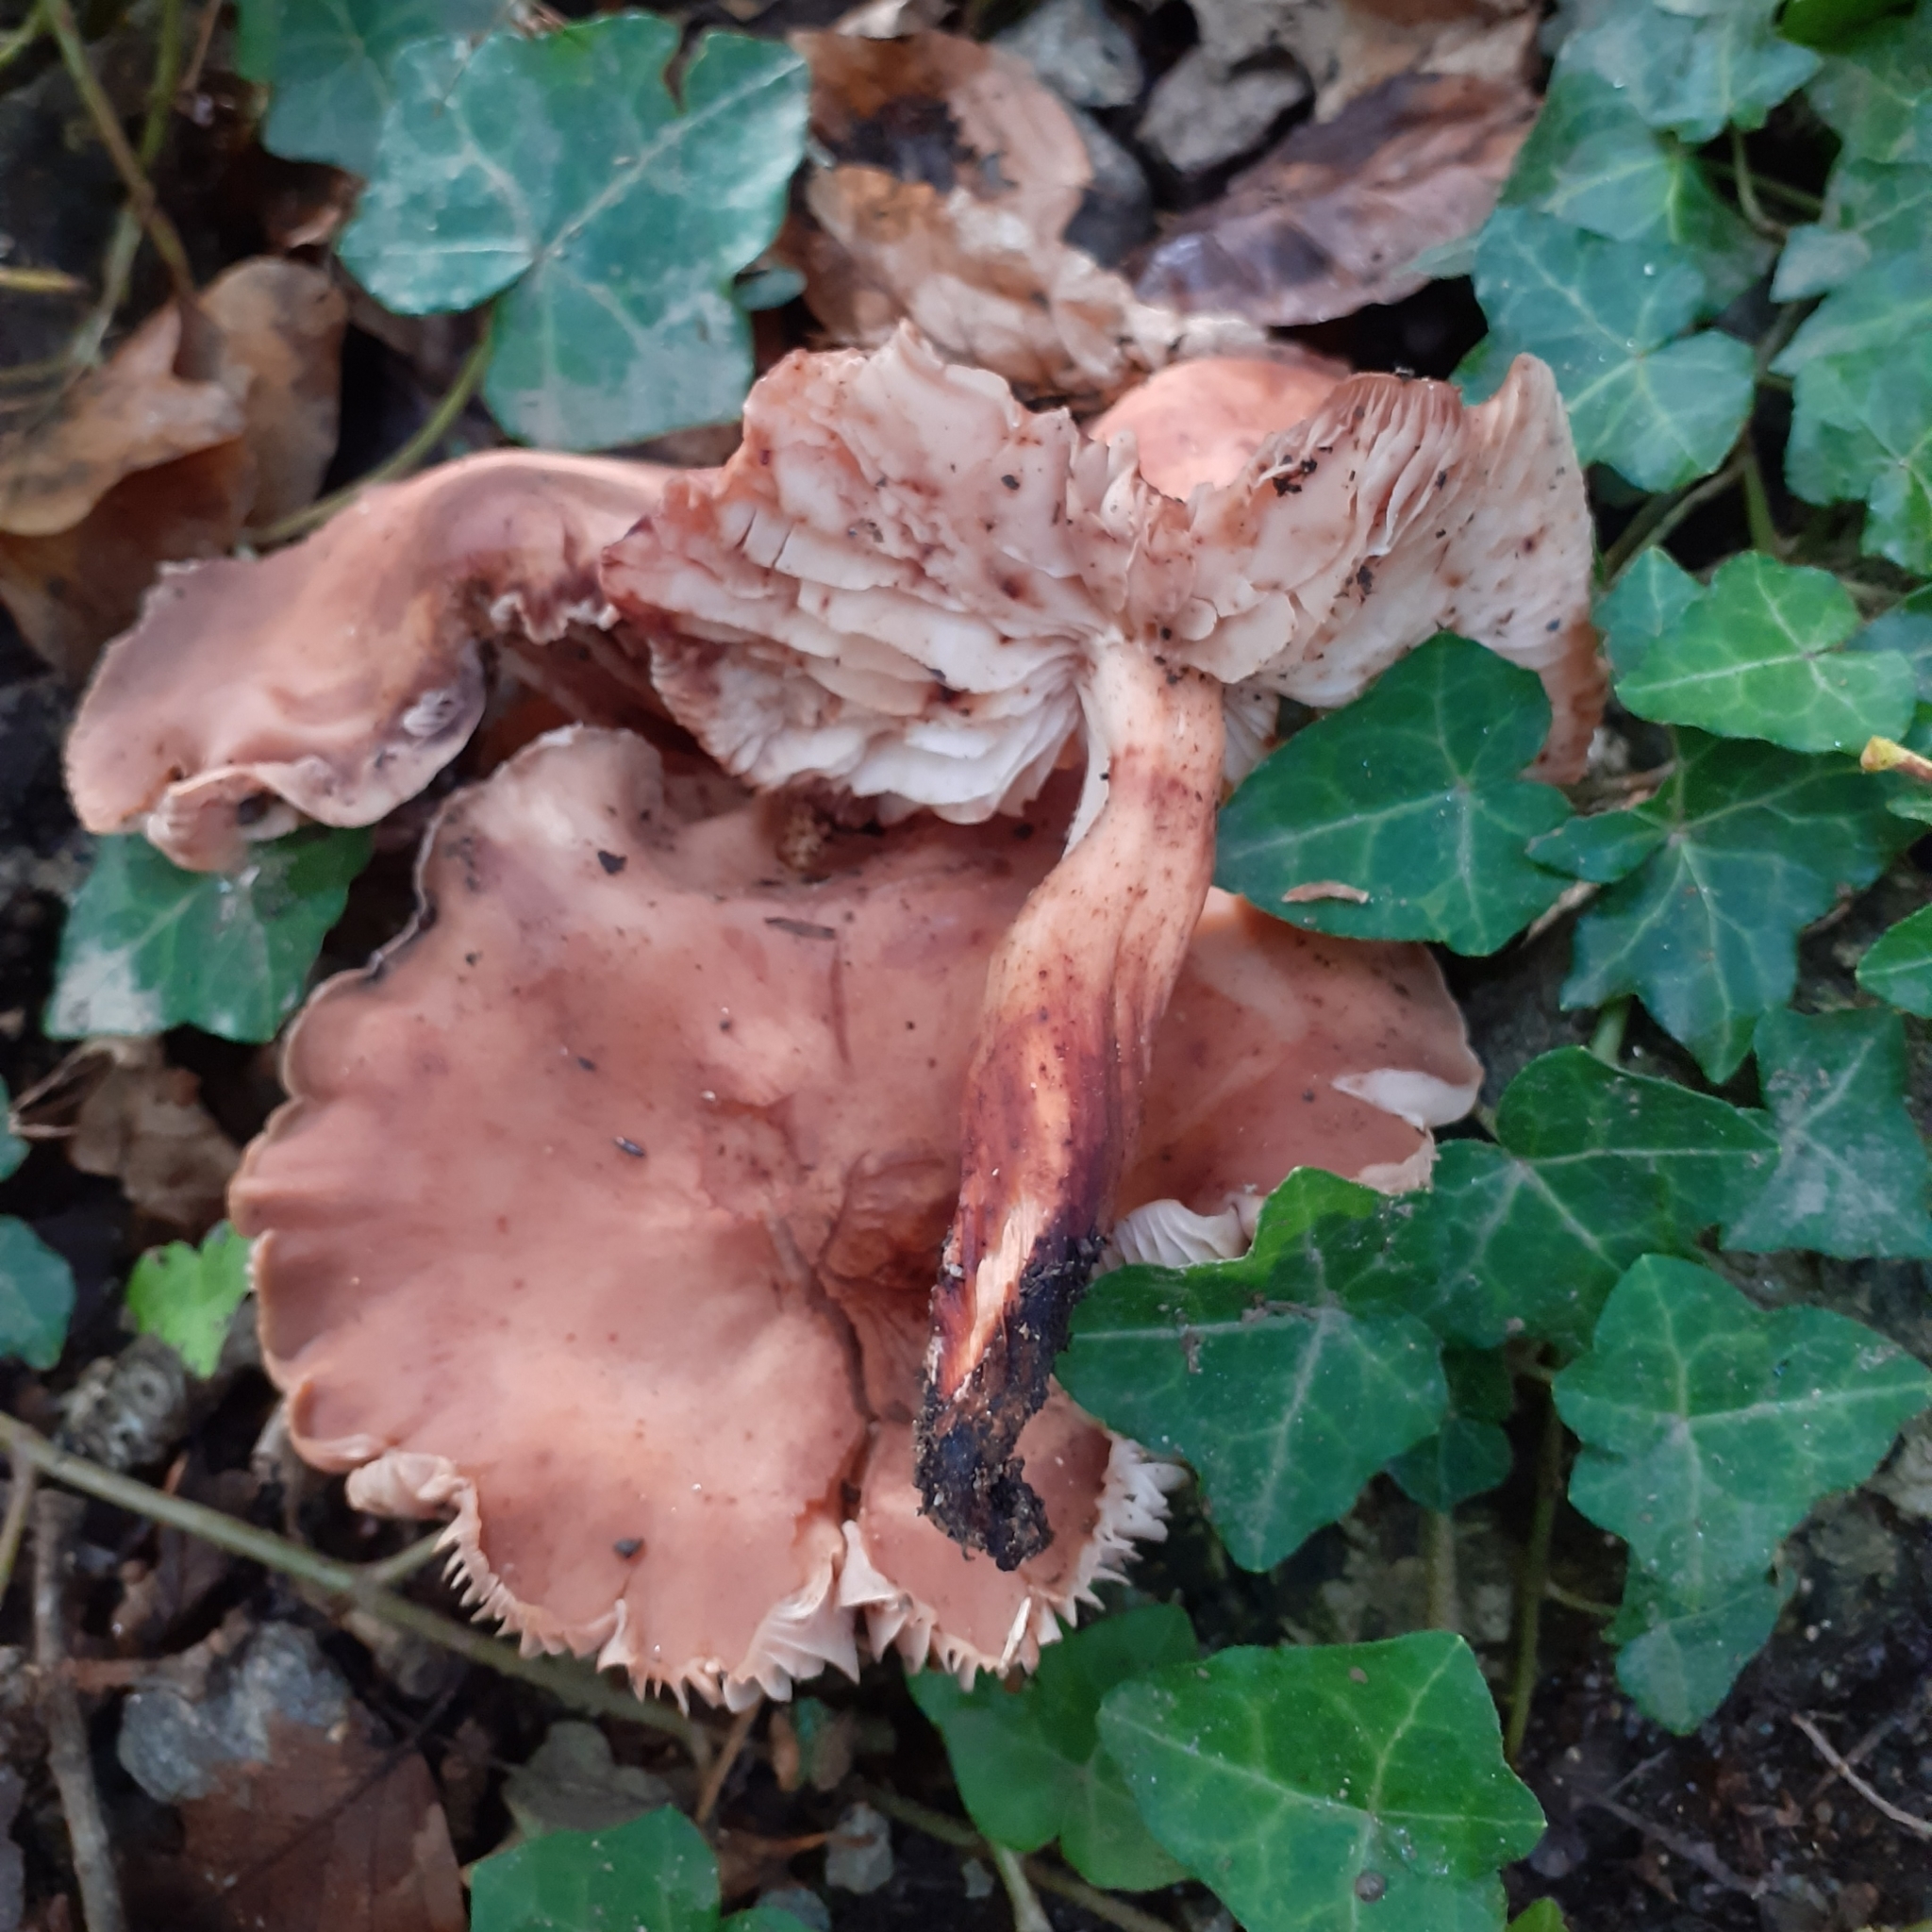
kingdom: Fungi
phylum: Basidiomycota
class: Agaricomycetes
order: Agaricales
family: Omphalotaceae
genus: Gymnopus
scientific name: Gymnopus fusipes
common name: Spindle shank
